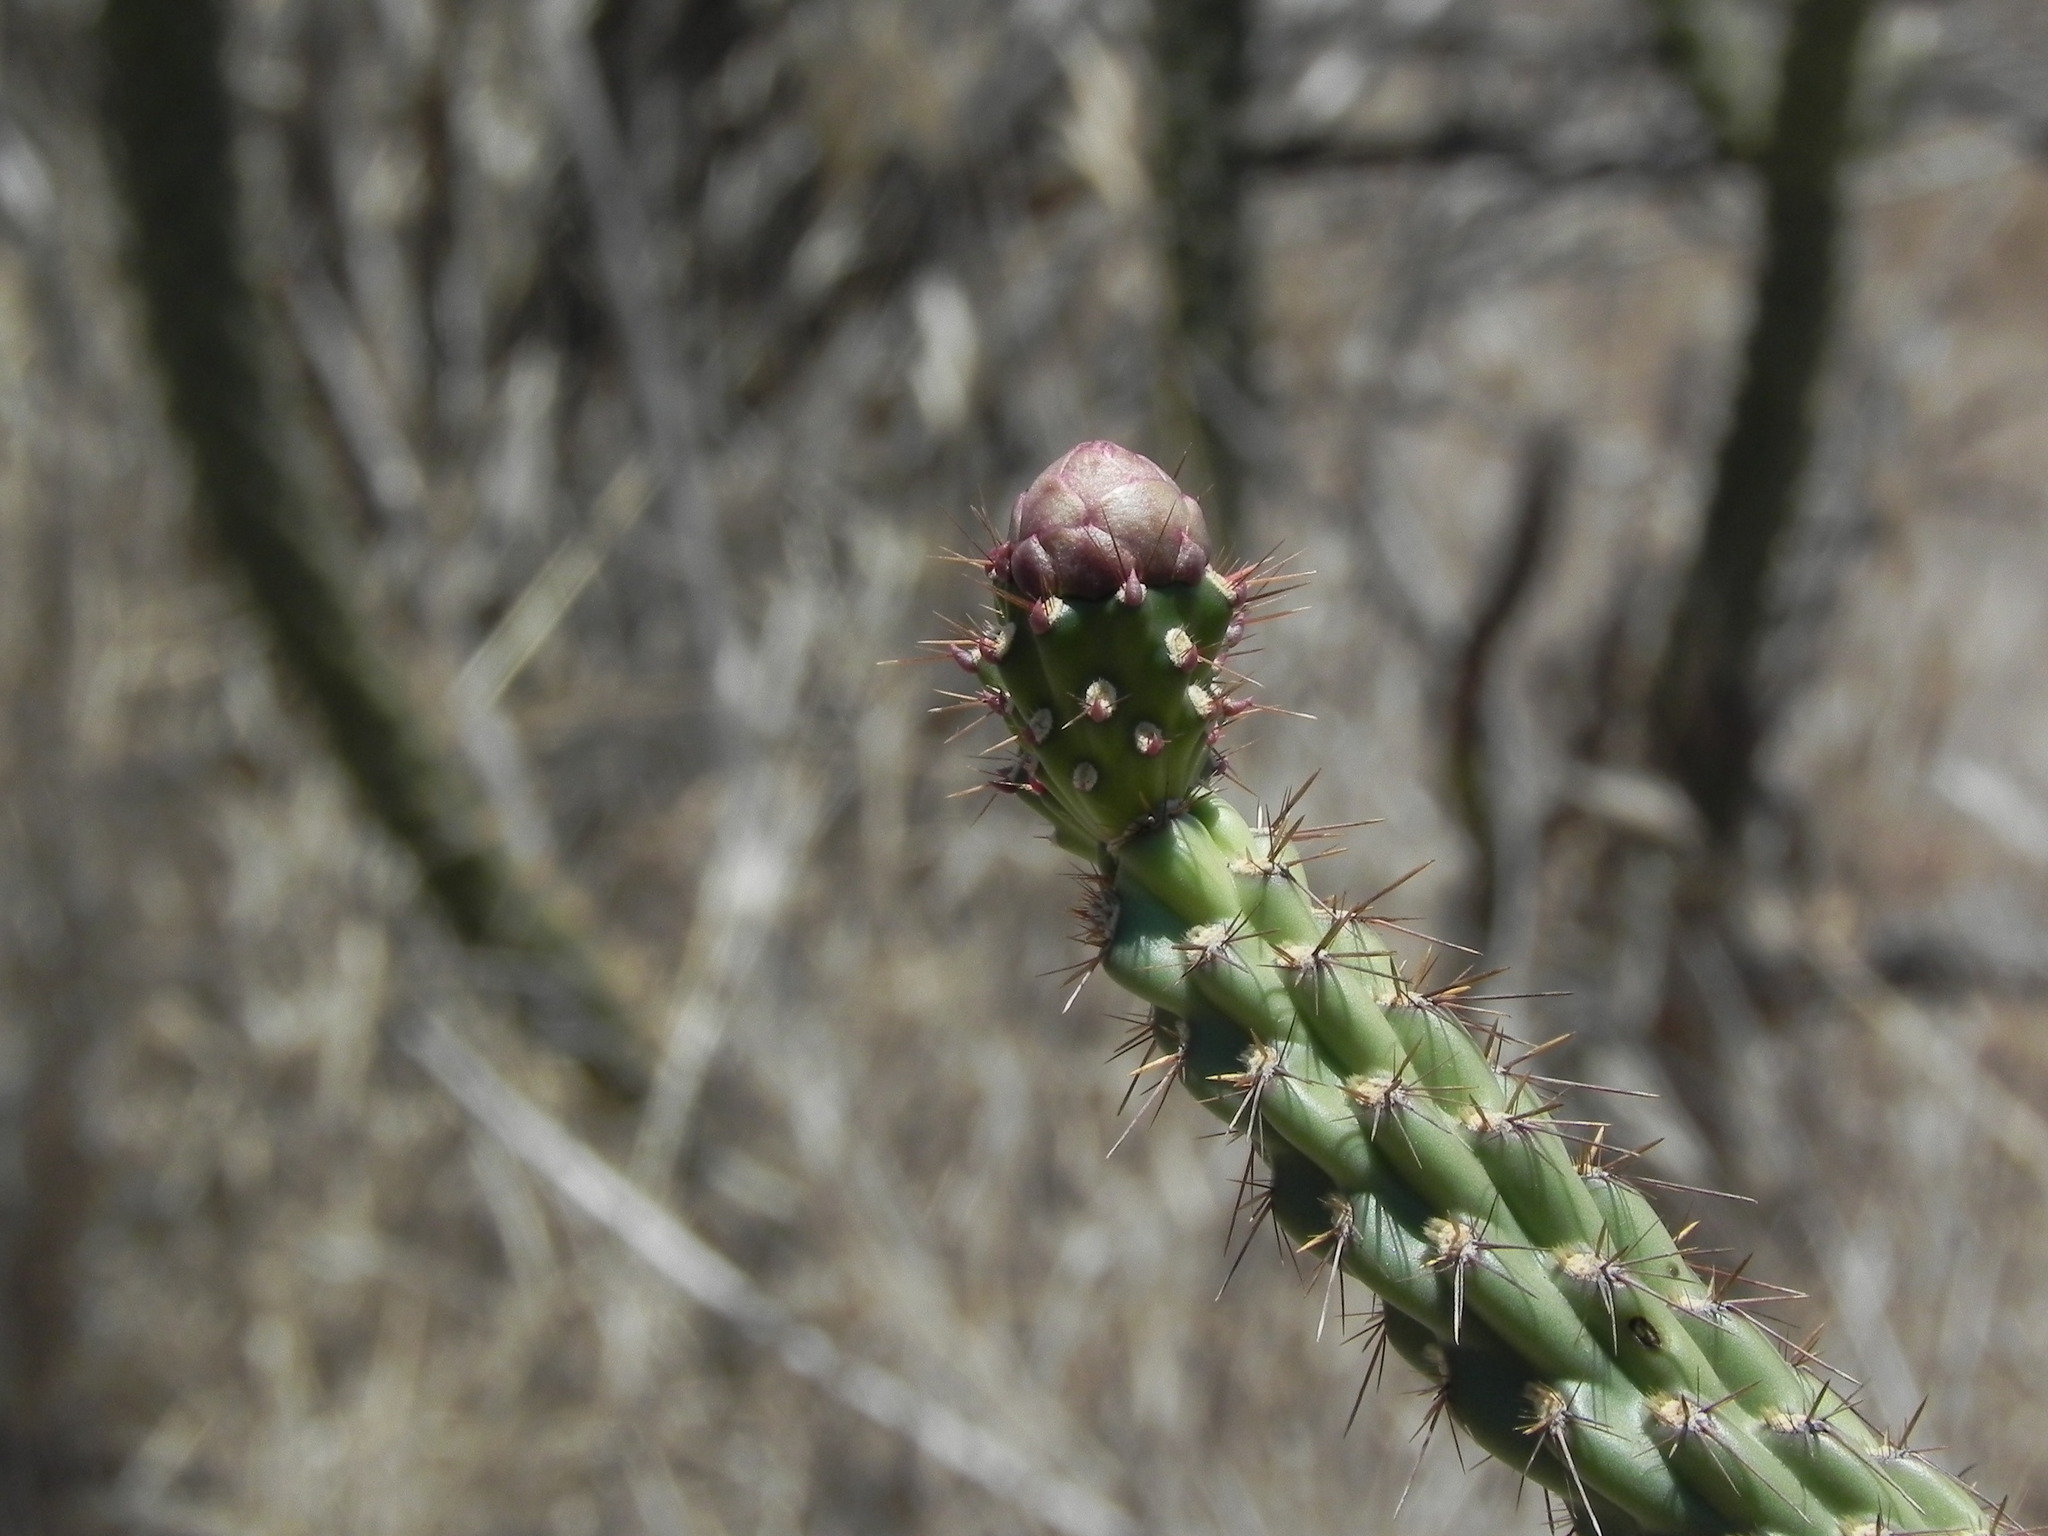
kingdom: Plantae
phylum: Tracheophyta
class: Magnoliopsida
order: Caryophyllales
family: Cactaceae
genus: Cylindropuntia
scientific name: Cylindropuntia californica
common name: Snake cholla
